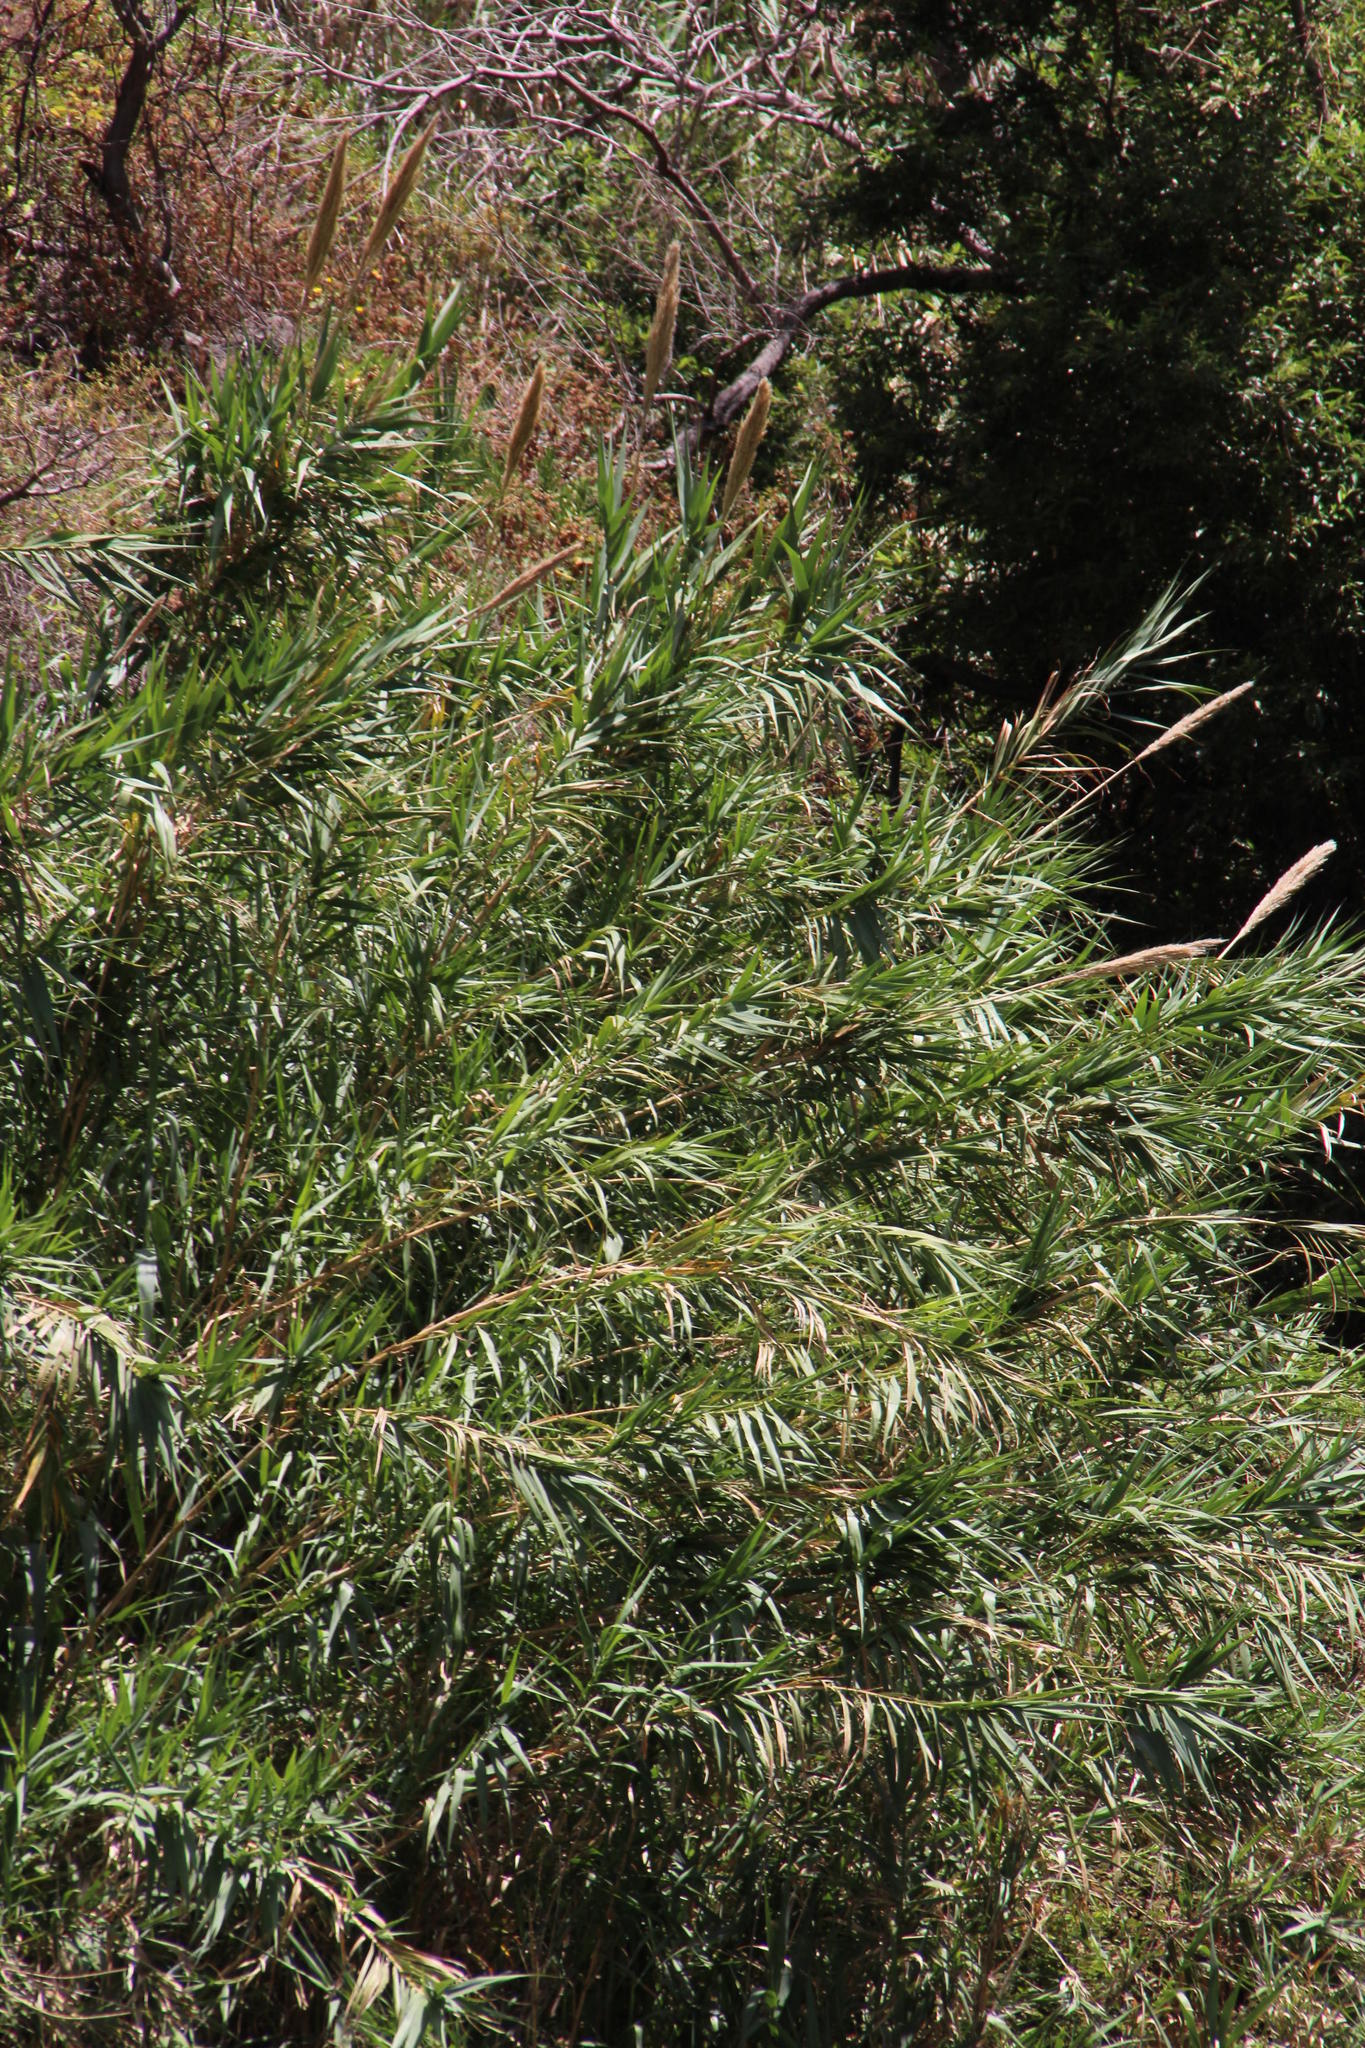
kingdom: Plantae
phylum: Tracheophyta
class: Liliopsida
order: Poales
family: Poaceae
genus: Arundo
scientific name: Arundo donax
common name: Giant reed
